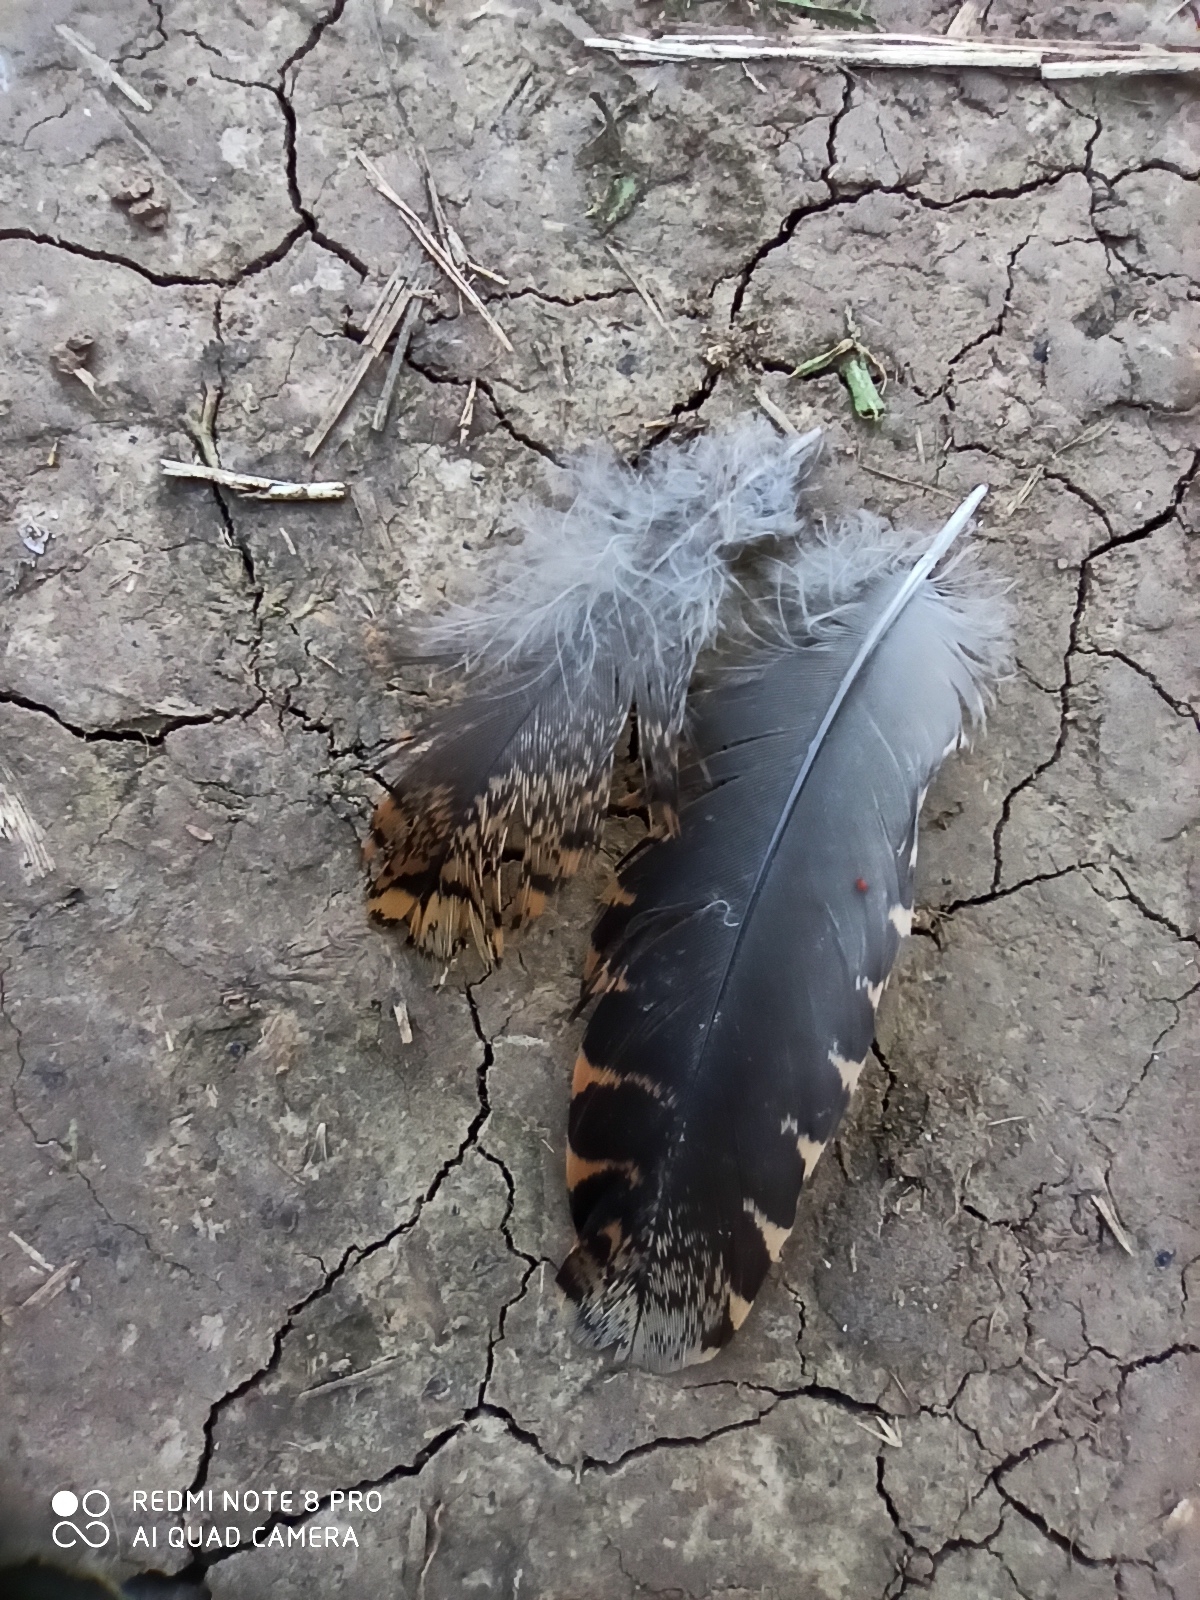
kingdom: Animalia
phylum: Chordata
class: Aves
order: Charadriiformes
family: Scolopacidae
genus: Scolopax
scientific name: Scolopax rusticola
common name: Eurasian woodcock
